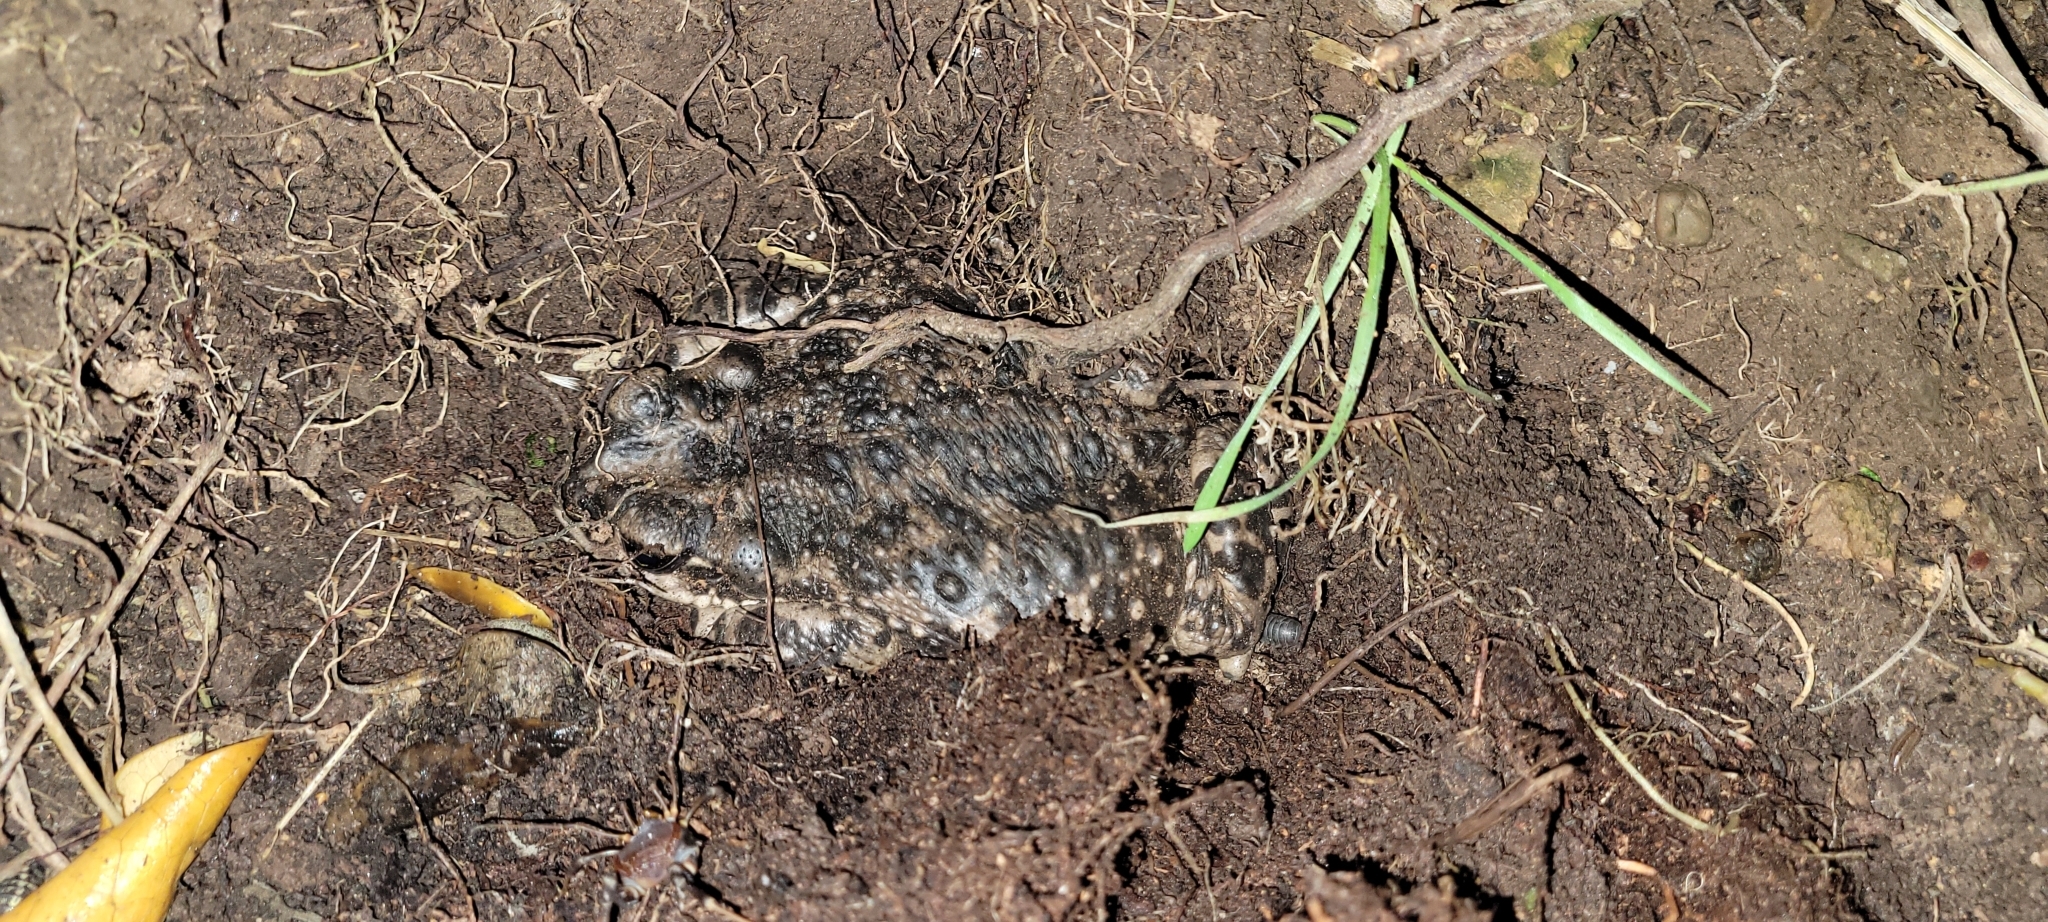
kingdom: Animalia
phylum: Chordata
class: Amphibia
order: Anura
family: Bufonidae
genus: Rhinella
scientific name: Rhinella arunco
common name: Concepcion toad
